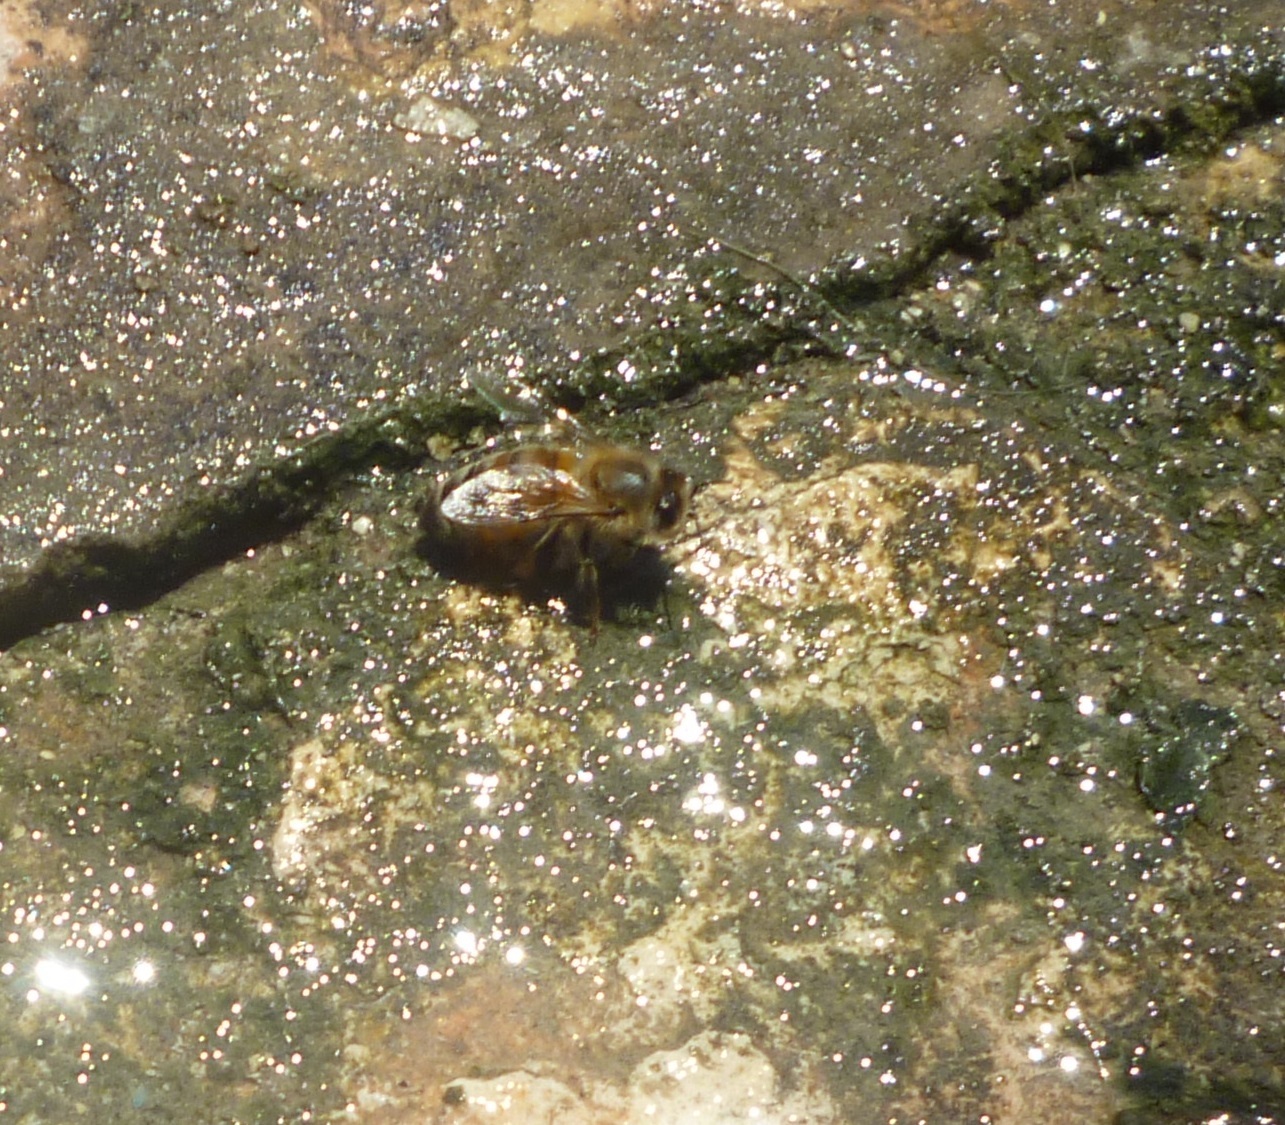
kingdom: Animalia
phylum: Arthropoda
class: Insecta
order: Hymenoptera
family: Apidae
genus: Apis
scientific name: Apis mellifera
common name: Honey bee
